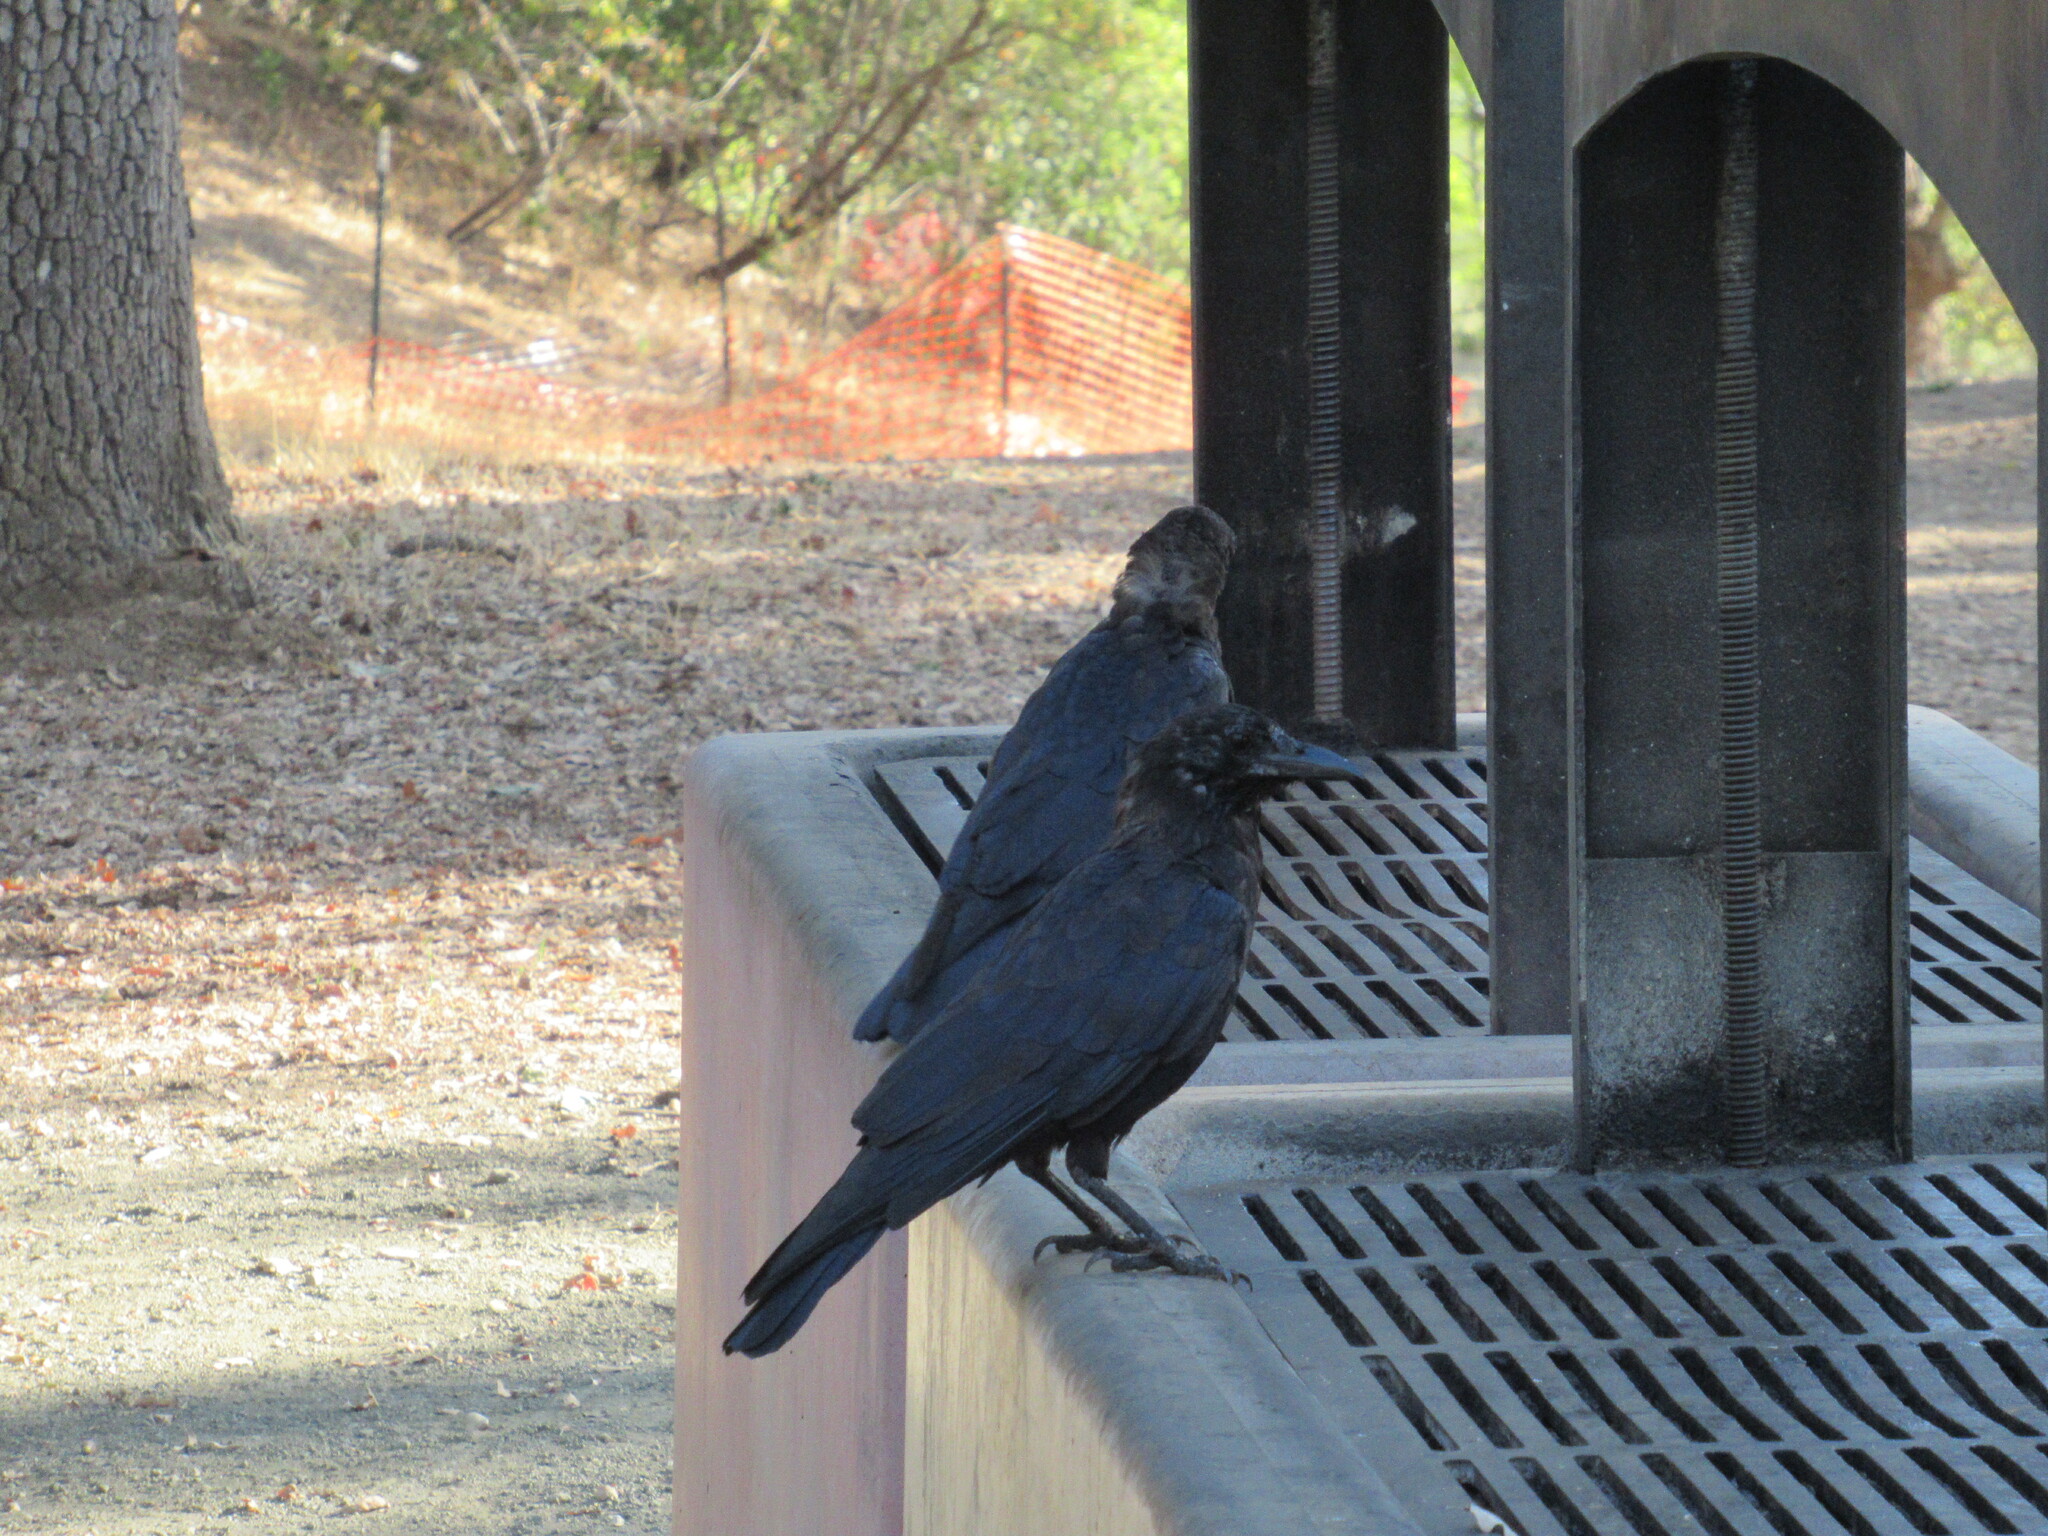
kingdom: Animalia
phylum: Chordata
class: Aves
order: Passeriformes
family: Corvidae
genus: Corvus
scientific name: Corvus brachyrhynchos
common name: American crow
